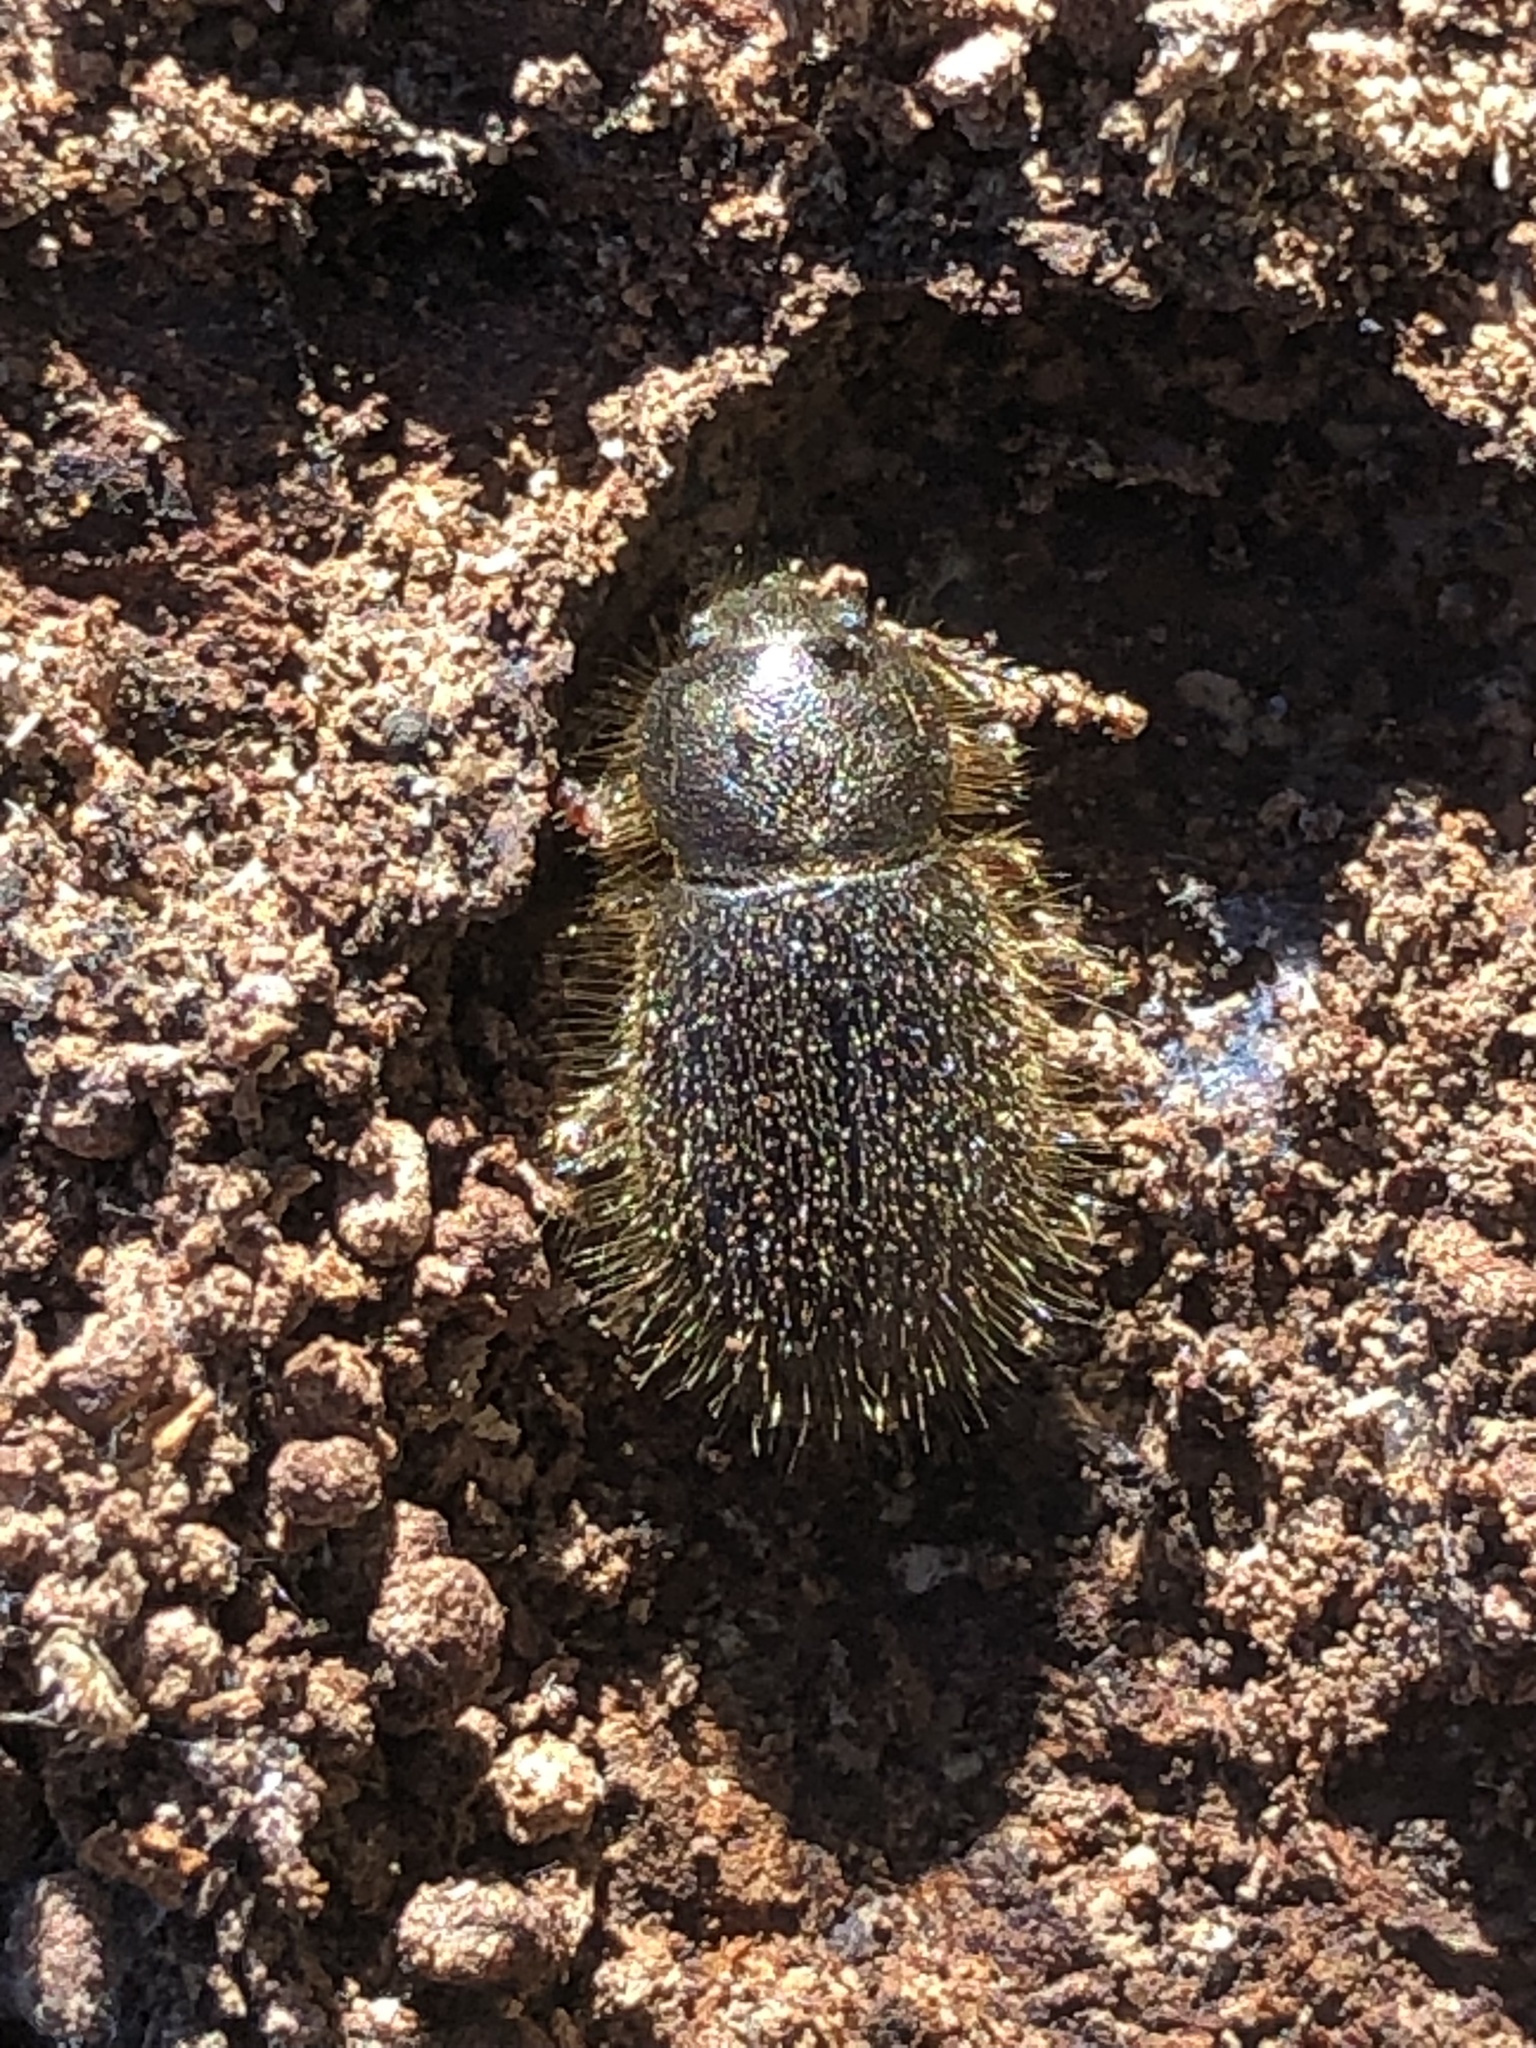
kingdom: Animalia
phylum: Arthropoda
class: Insecta
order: Coleoptera
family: Tenebrionidae
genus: Eleodes
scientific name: Eleodes littoralis
